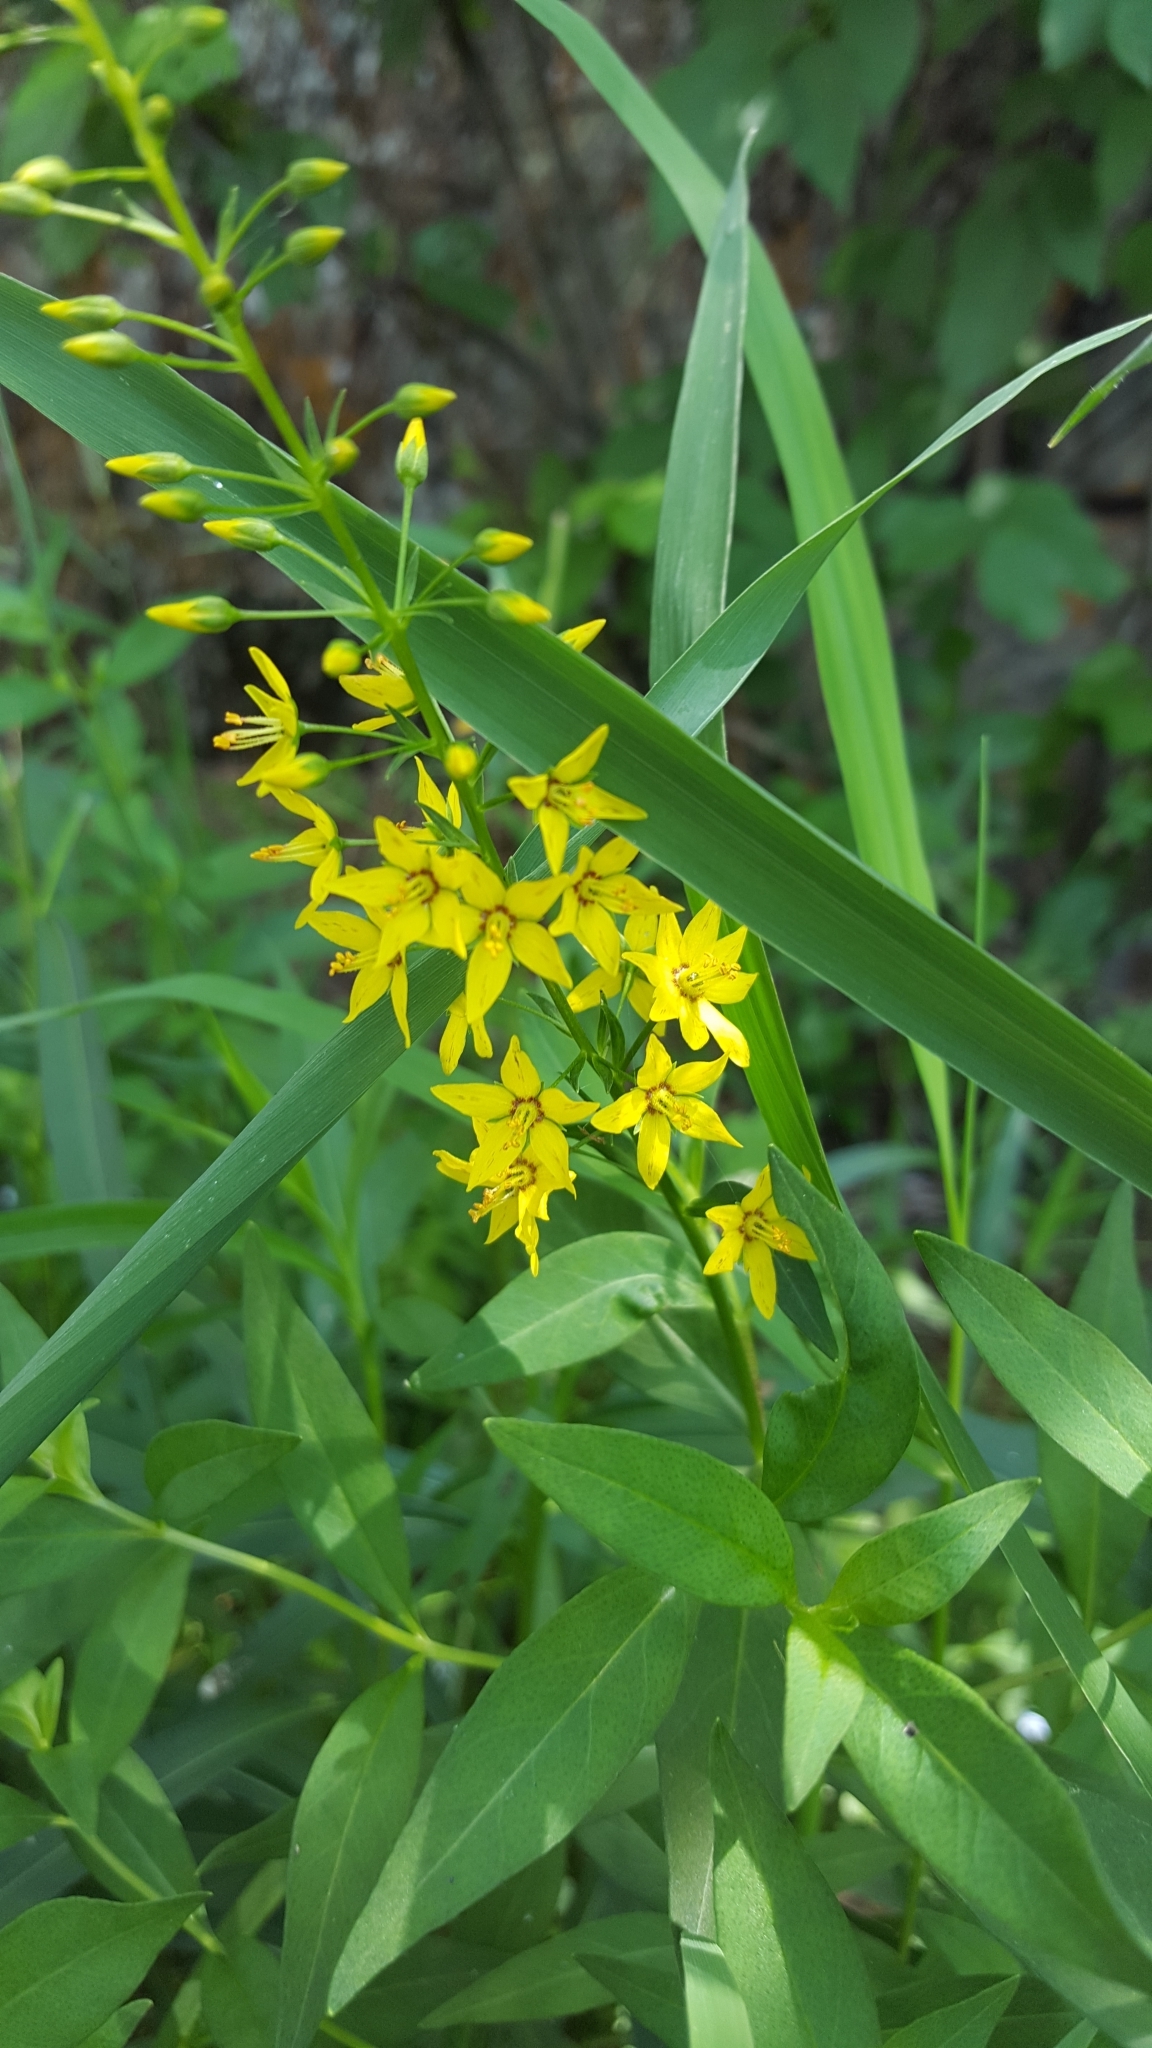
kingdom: Plantae
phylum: Tracheophyta
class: Magnoliopsida
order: Ericales
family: Primulaceae
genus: Lysimachia
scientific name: Lysimachia terrestris
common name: Lake loosestrife
